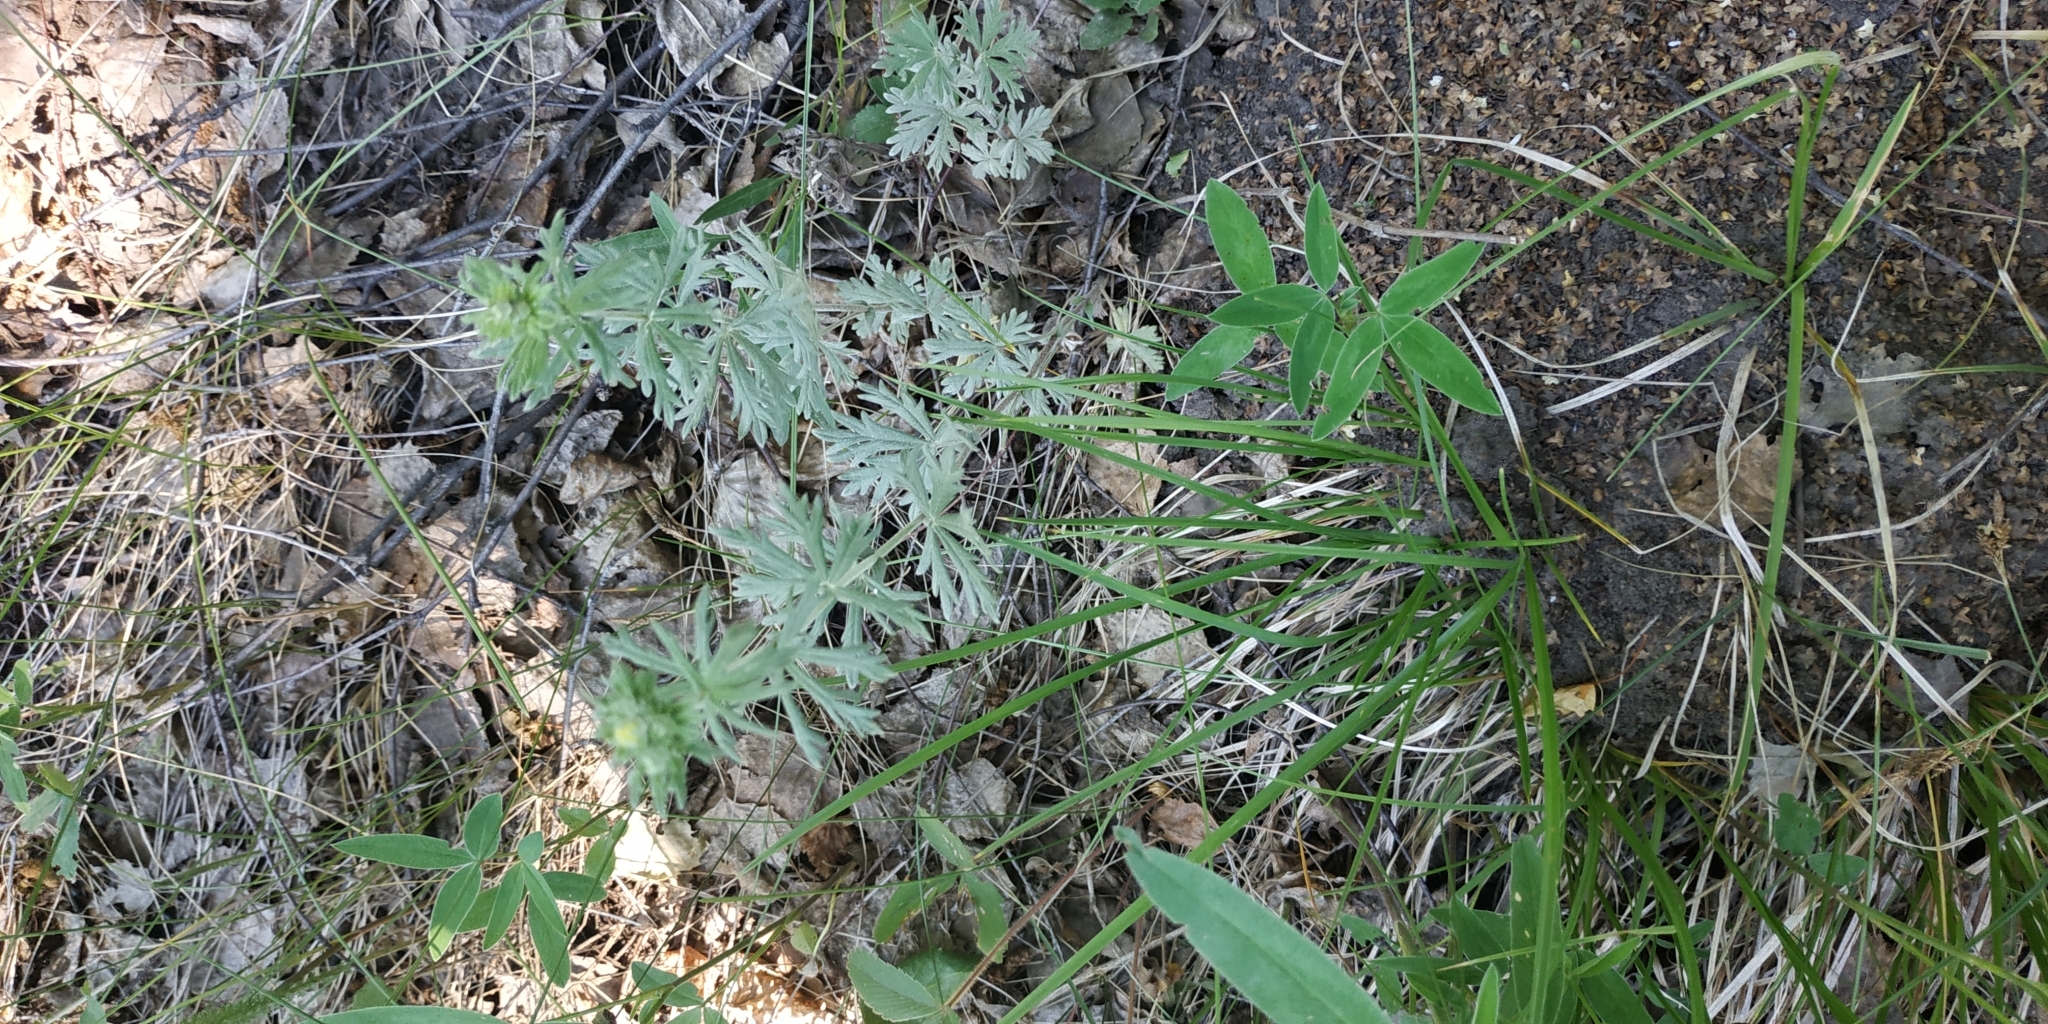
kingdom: Plantae
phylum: Tracheophyta
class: Magnoliopsida
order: Rosales
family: Rosaceae
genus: Potentilla
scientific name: Potentilla argentea
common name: Hoary cinquefoil
